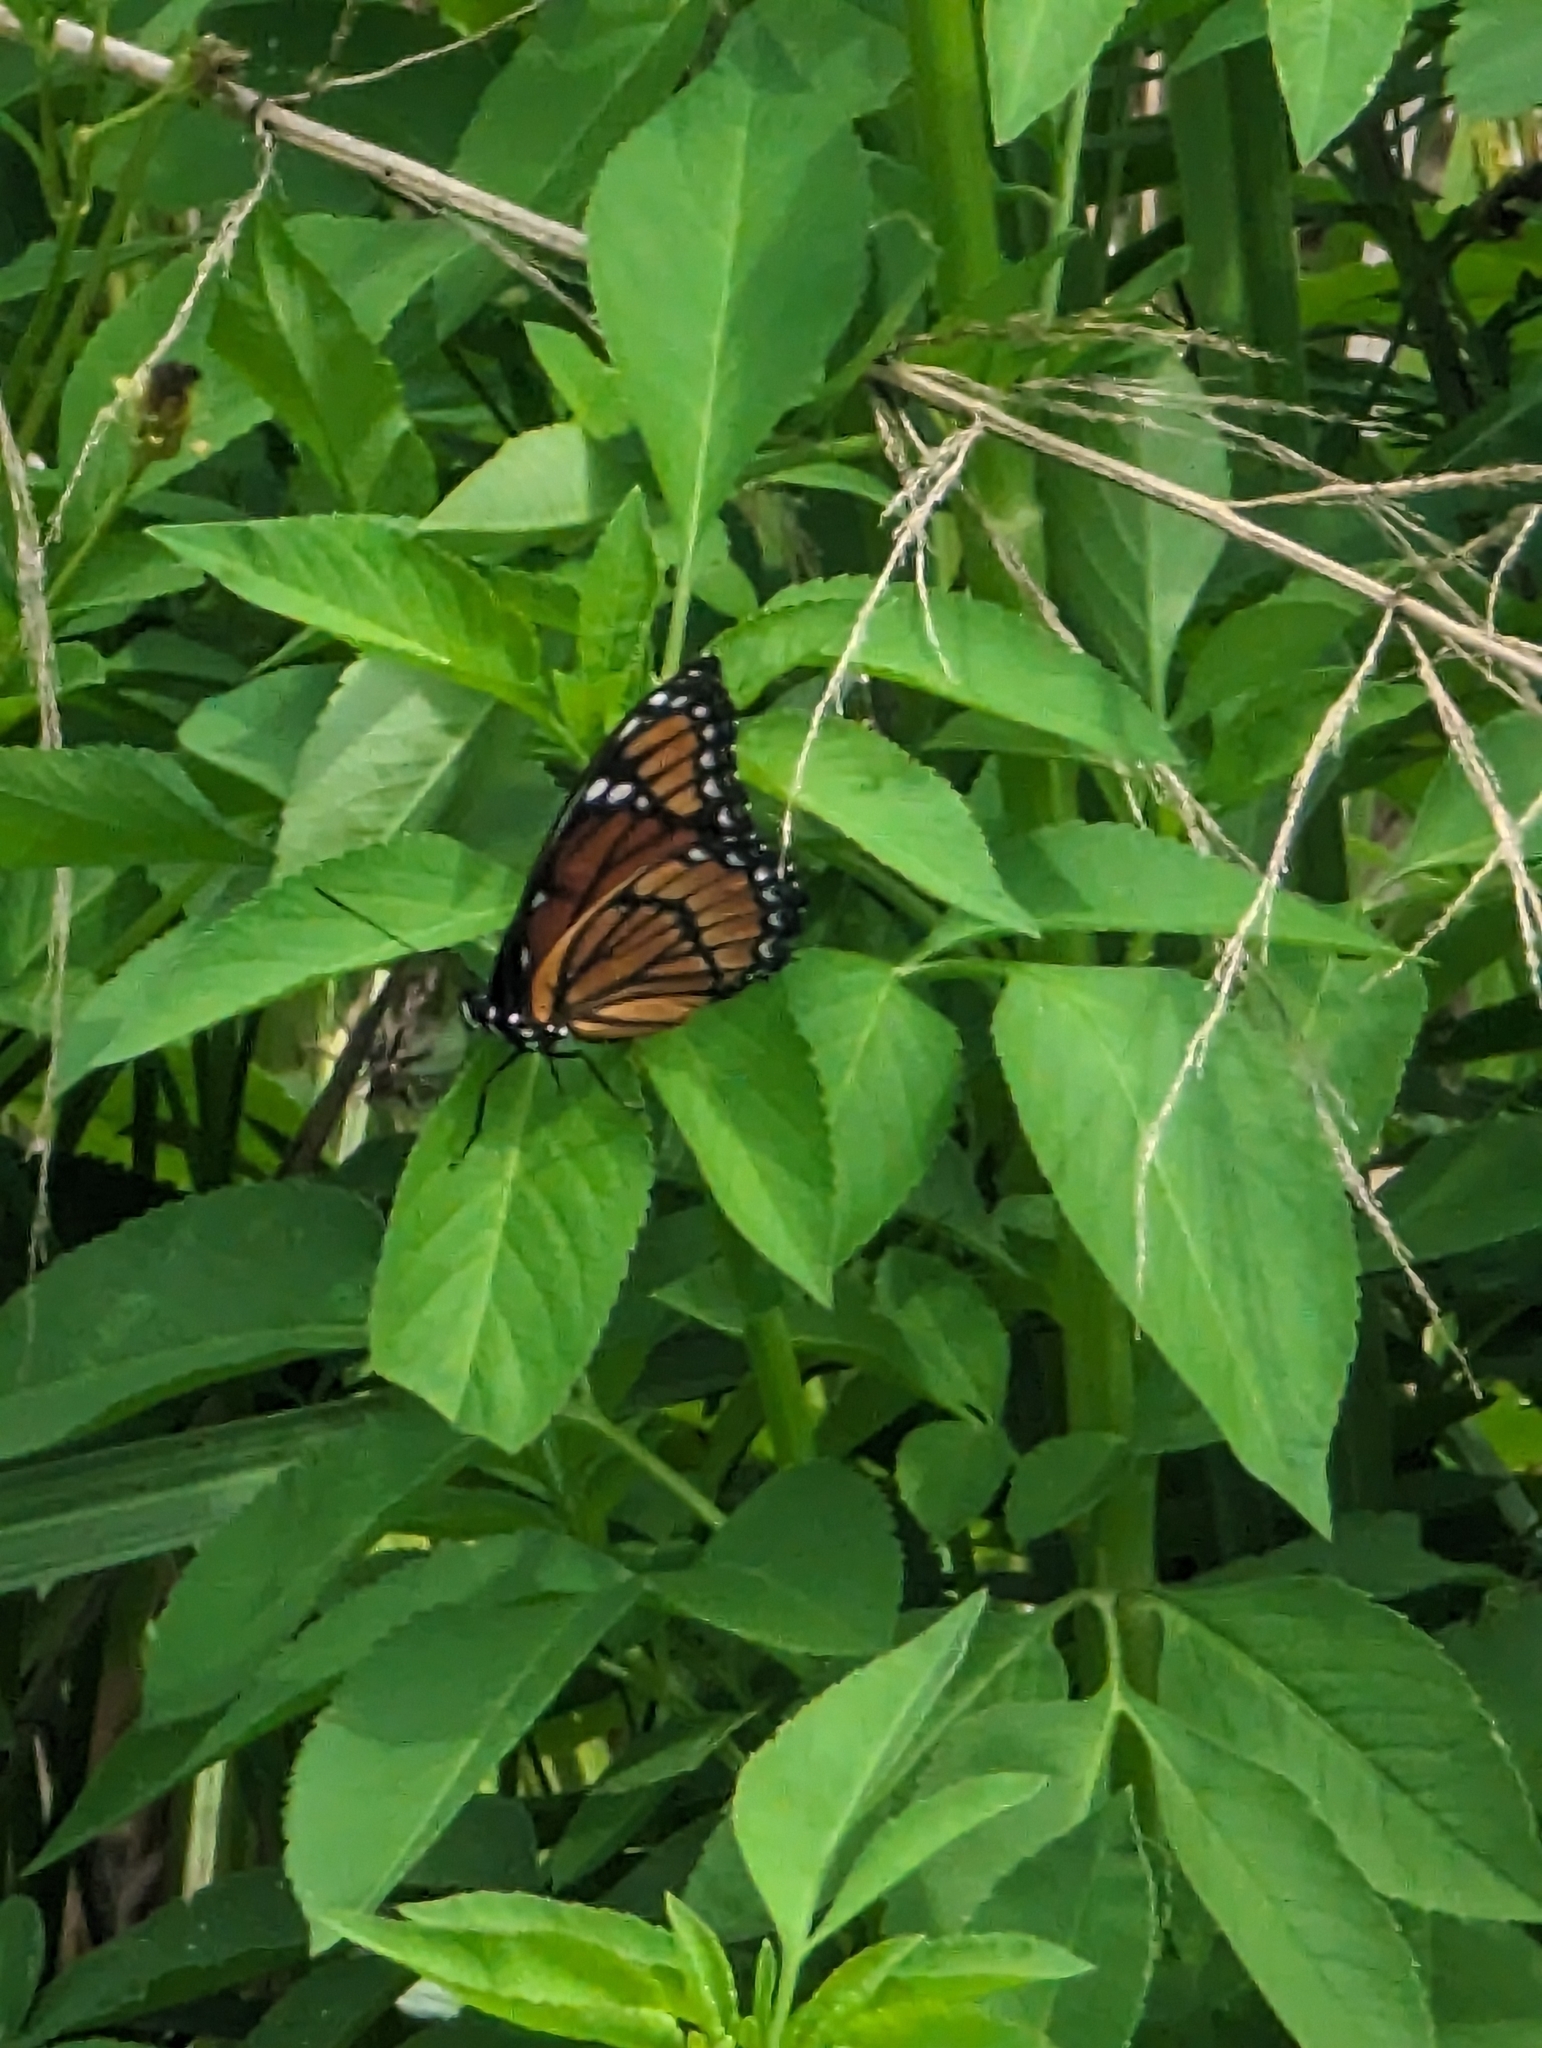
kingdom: Animalia
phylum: Arthropoda
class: Insecta
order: Lepidoptera
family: Nymphalidae
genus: Limenitis
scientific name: Limenitis archippus
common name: Viceroy
